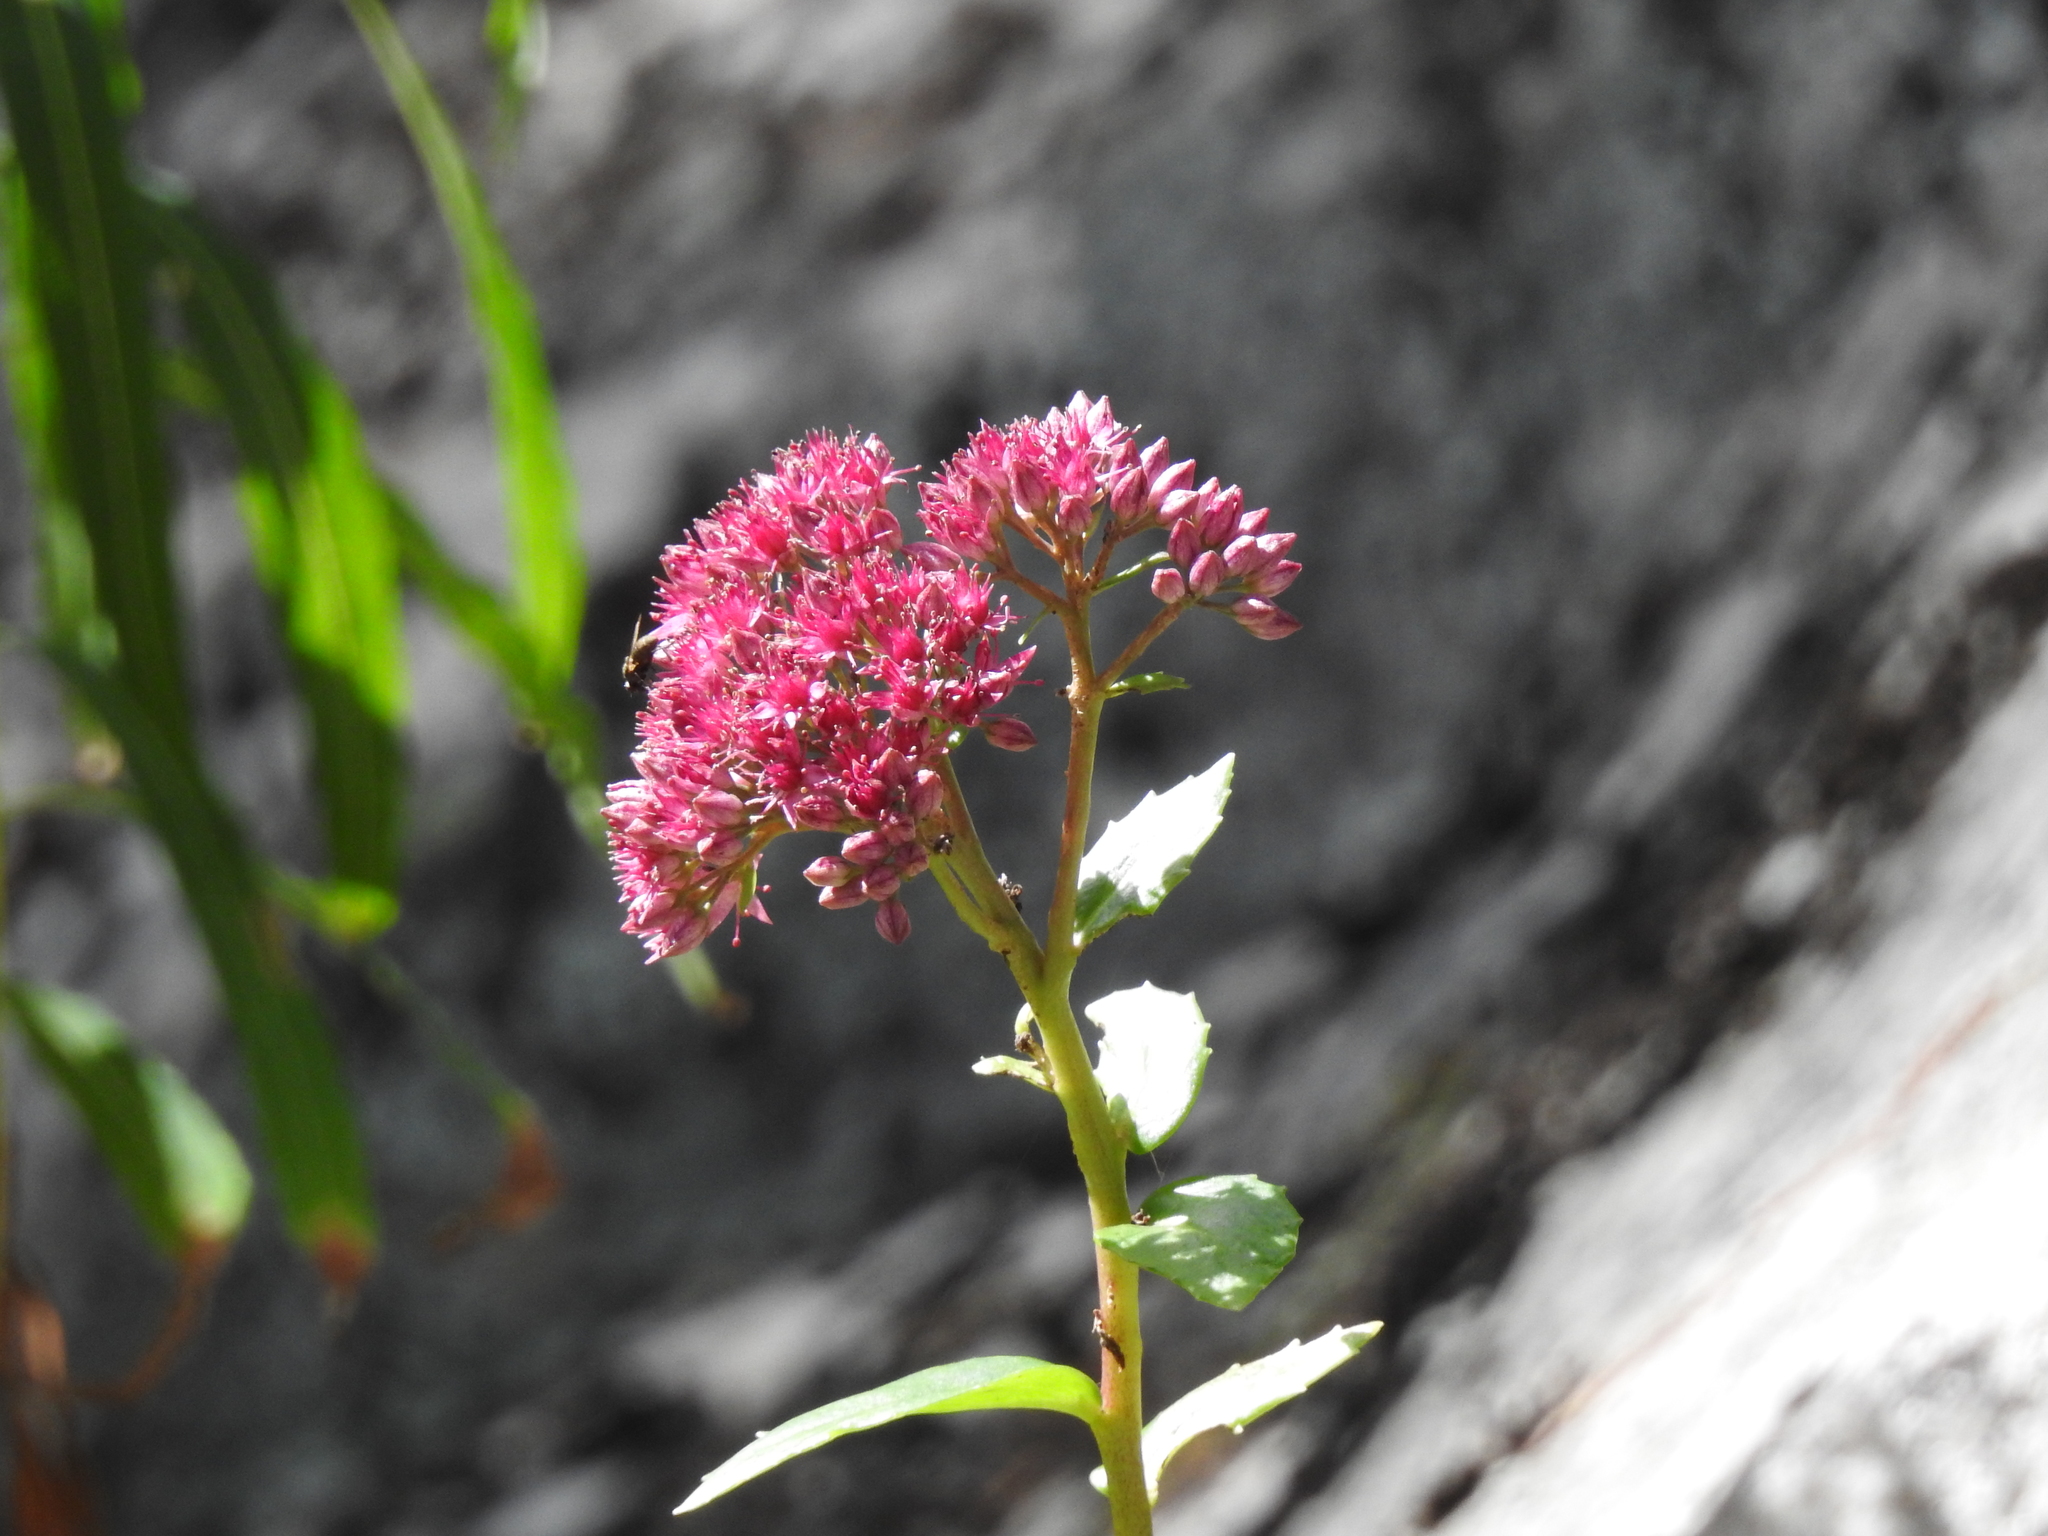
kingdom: Plantae
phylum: Tracheophyta
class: Magnoliopsida
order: Saxifragales
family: Crassulaceae
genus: Hylotelephium
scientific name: Hylotelephium telephium
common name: Live-forever
